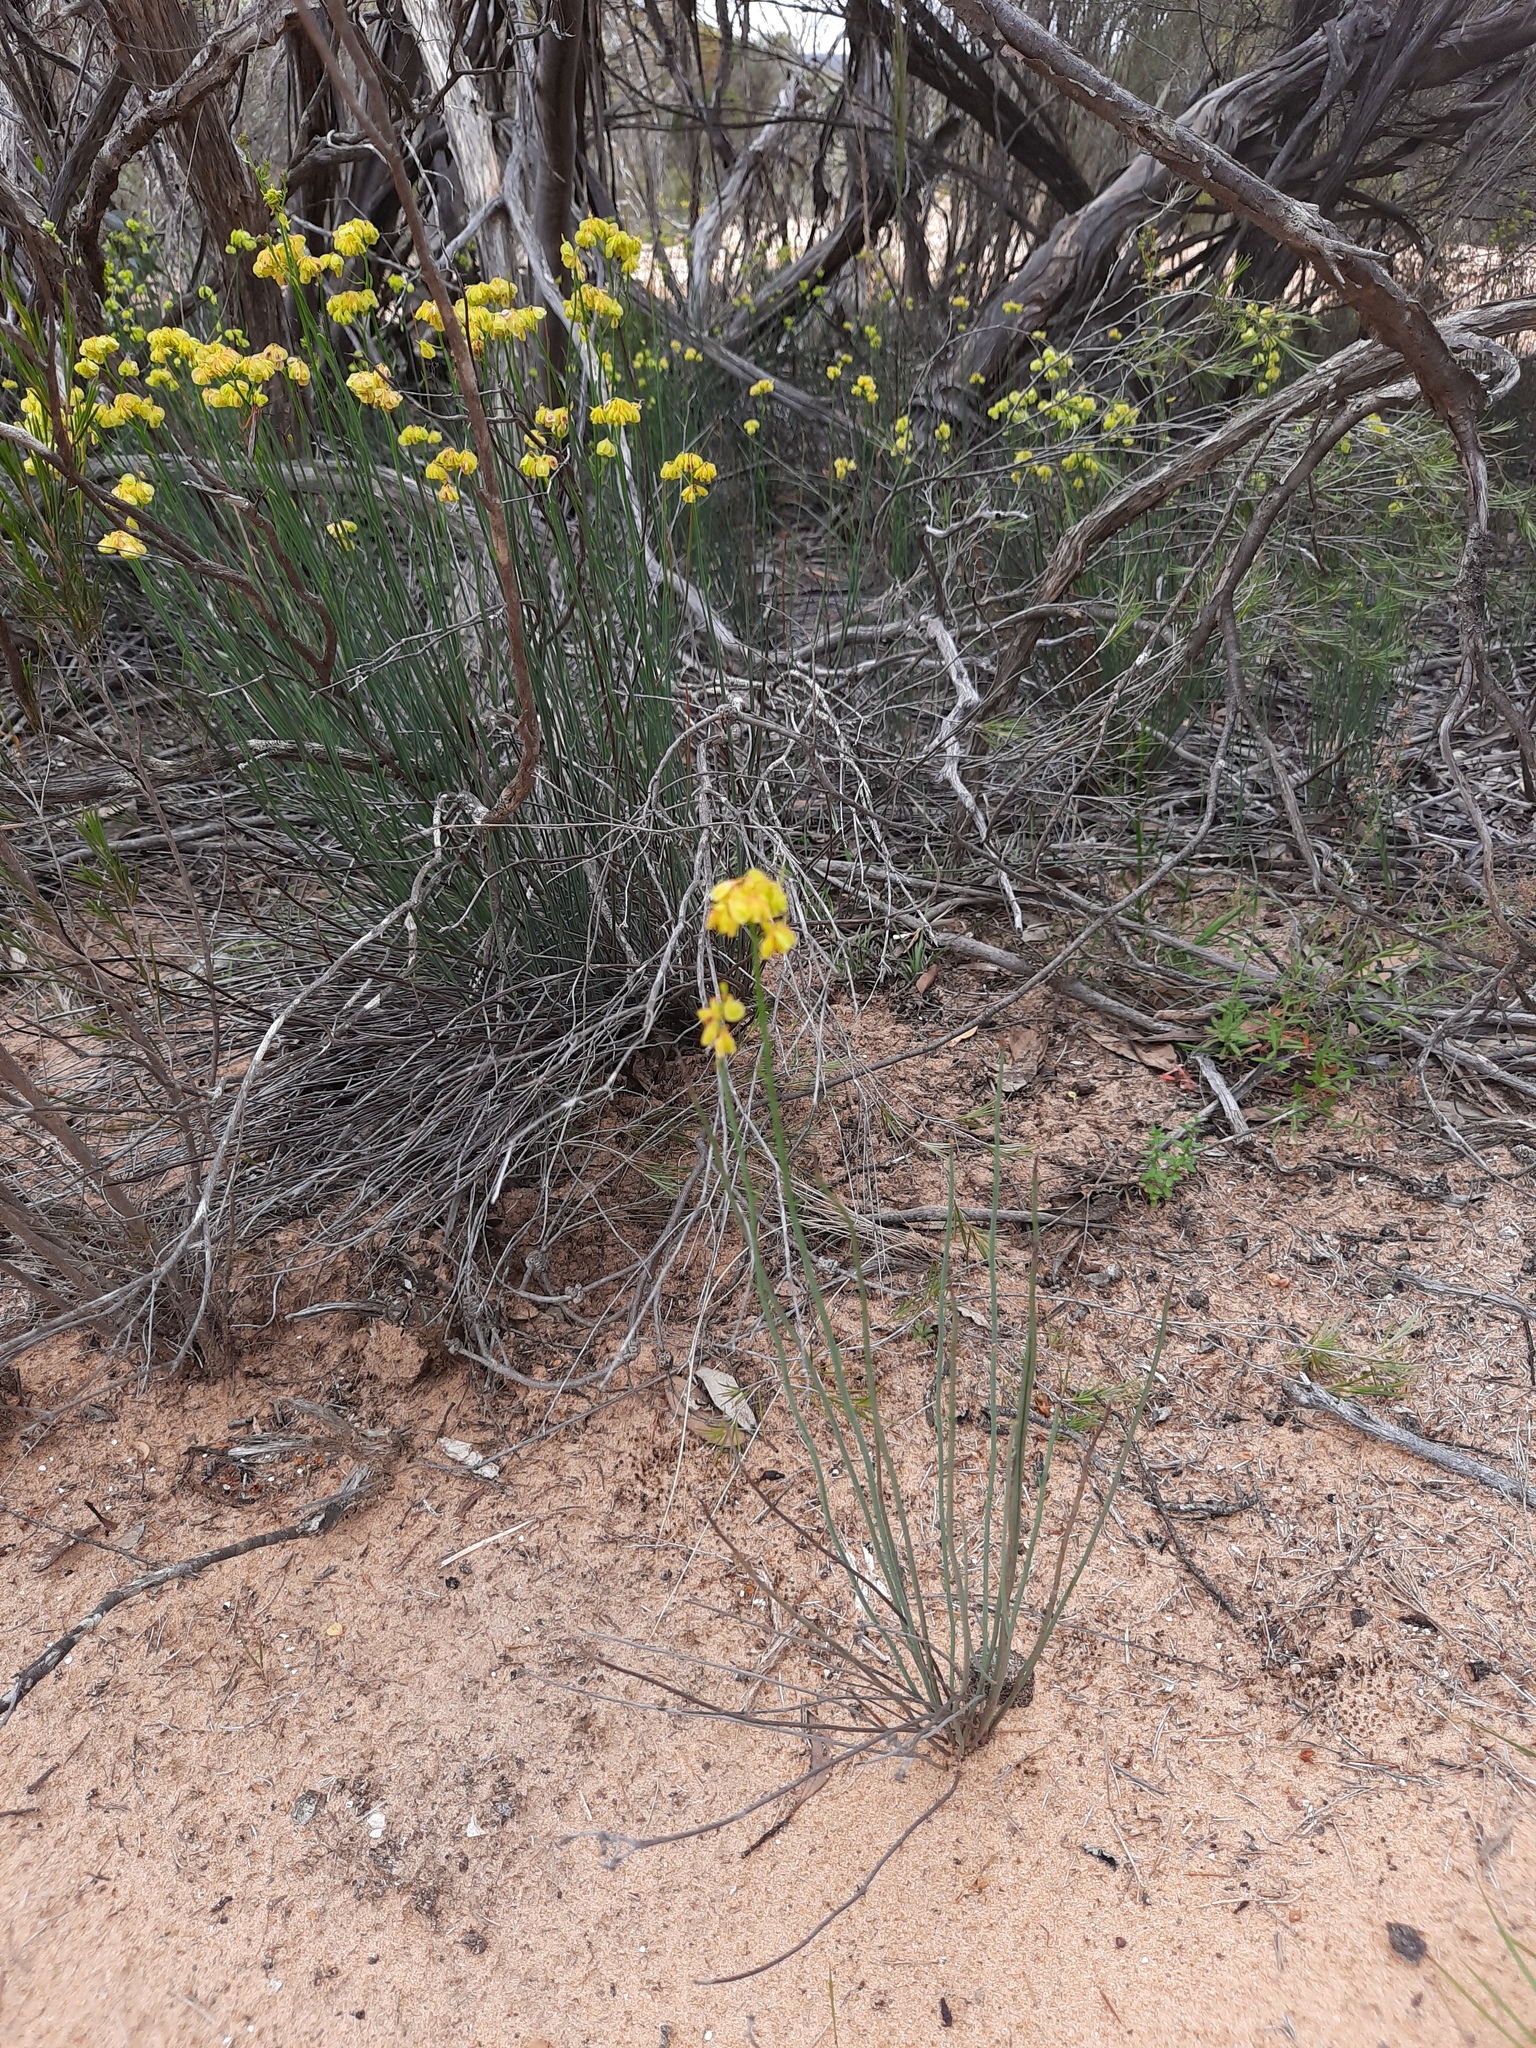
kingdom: Plantae
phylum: Tracheophyta
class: Magnoliopsida
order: Saxifragales
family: Haloragaceae
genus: Glischrocaryon
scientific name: Glischrocaryon behrii
